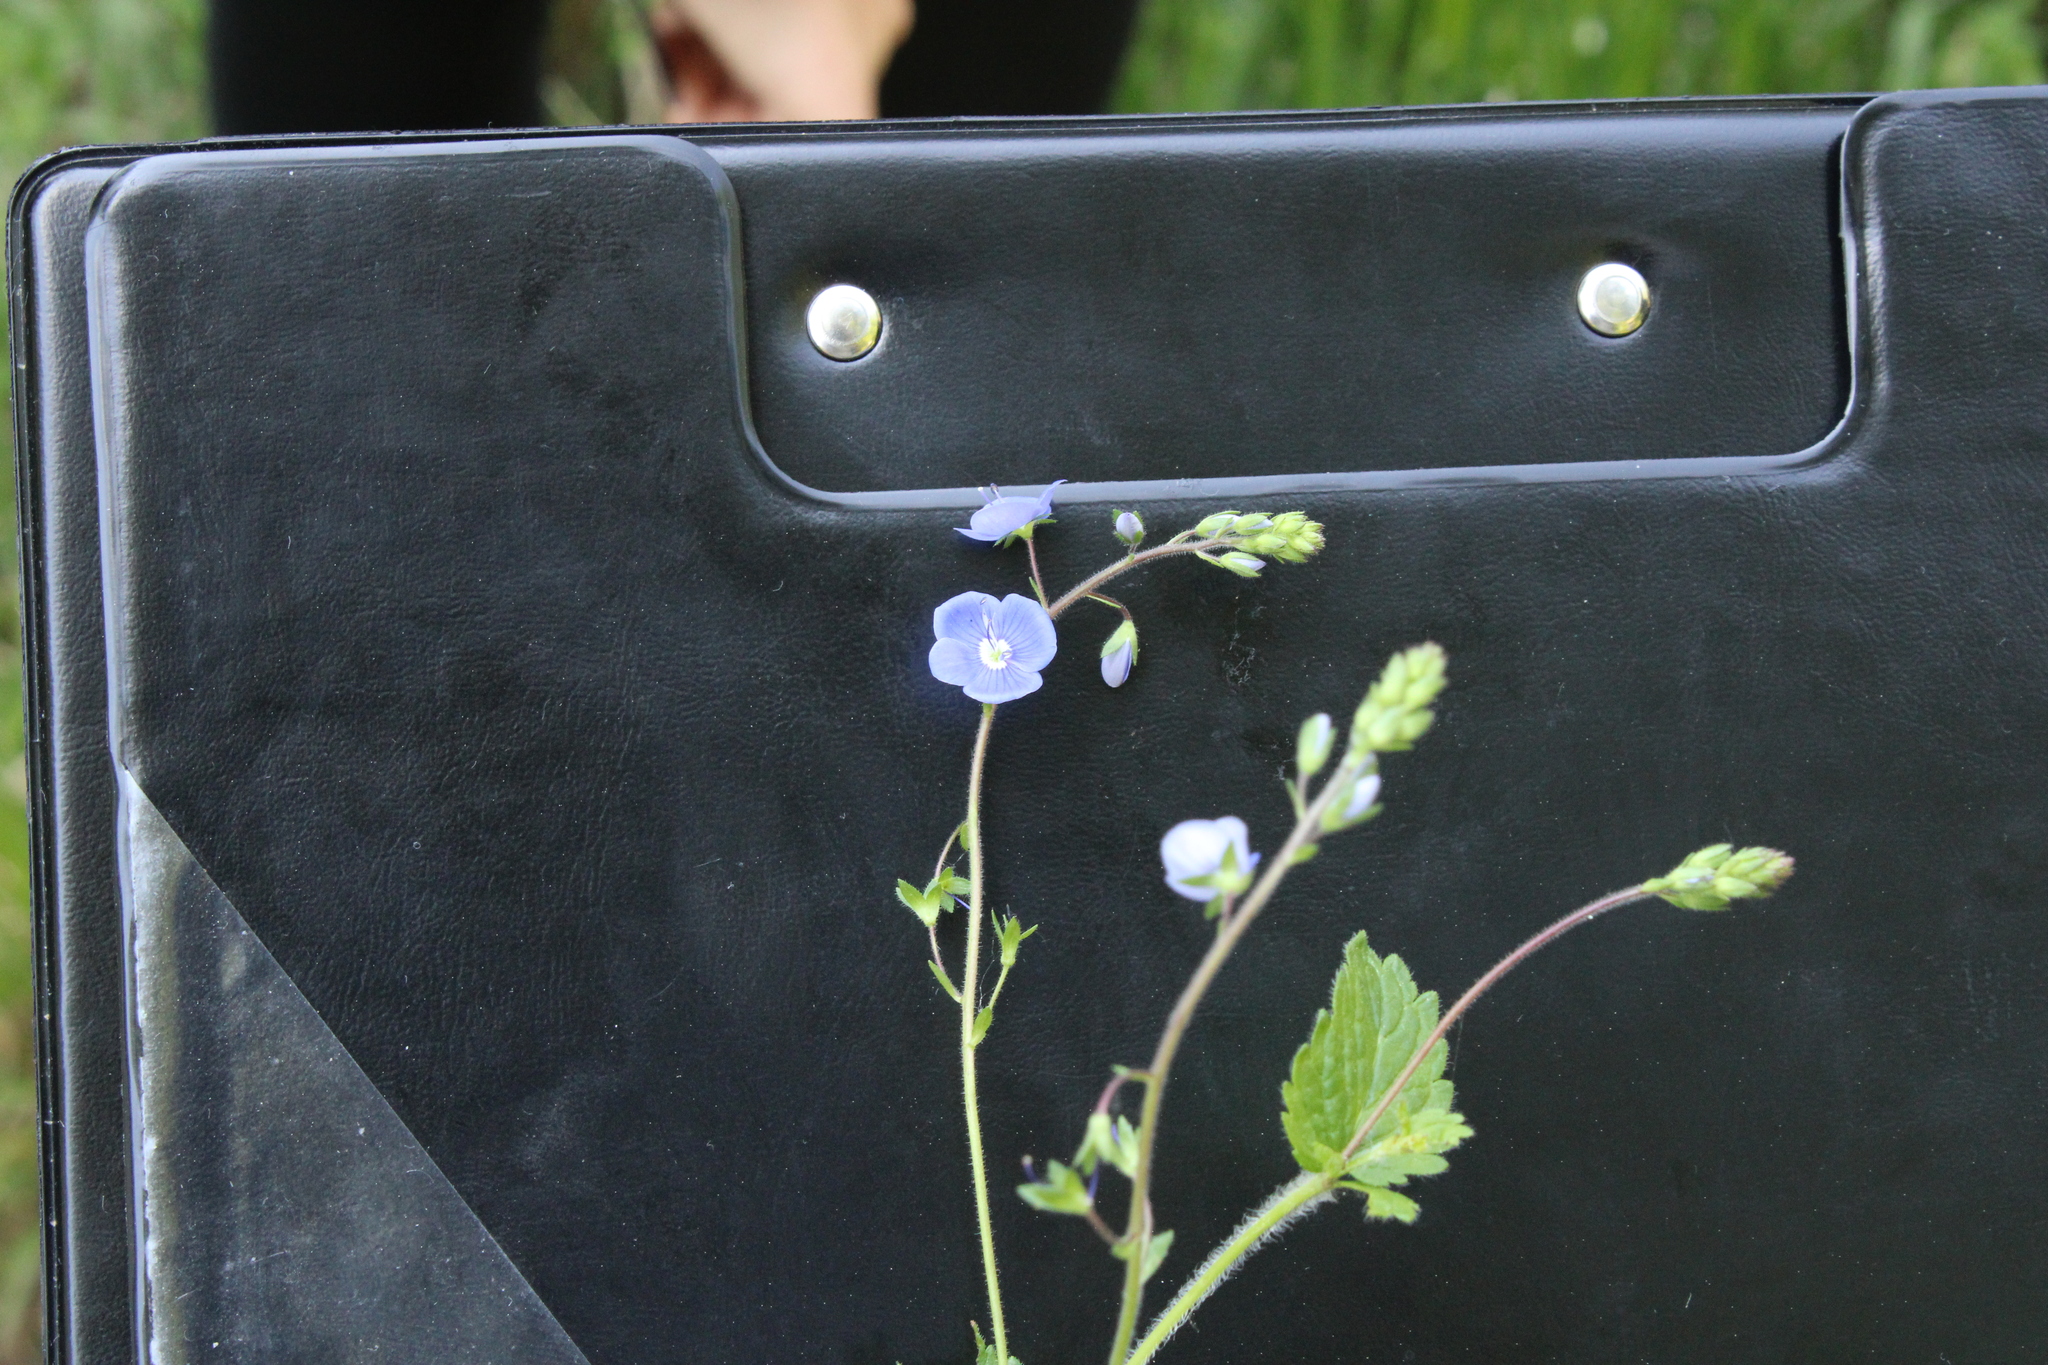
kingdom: Plantae
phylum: Tracheophyta
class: Magnoliopsida
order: Lamiales
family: Plantaginaceae
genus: Veronica
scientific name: Veronica chamaedrys
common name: Germander speedwell
